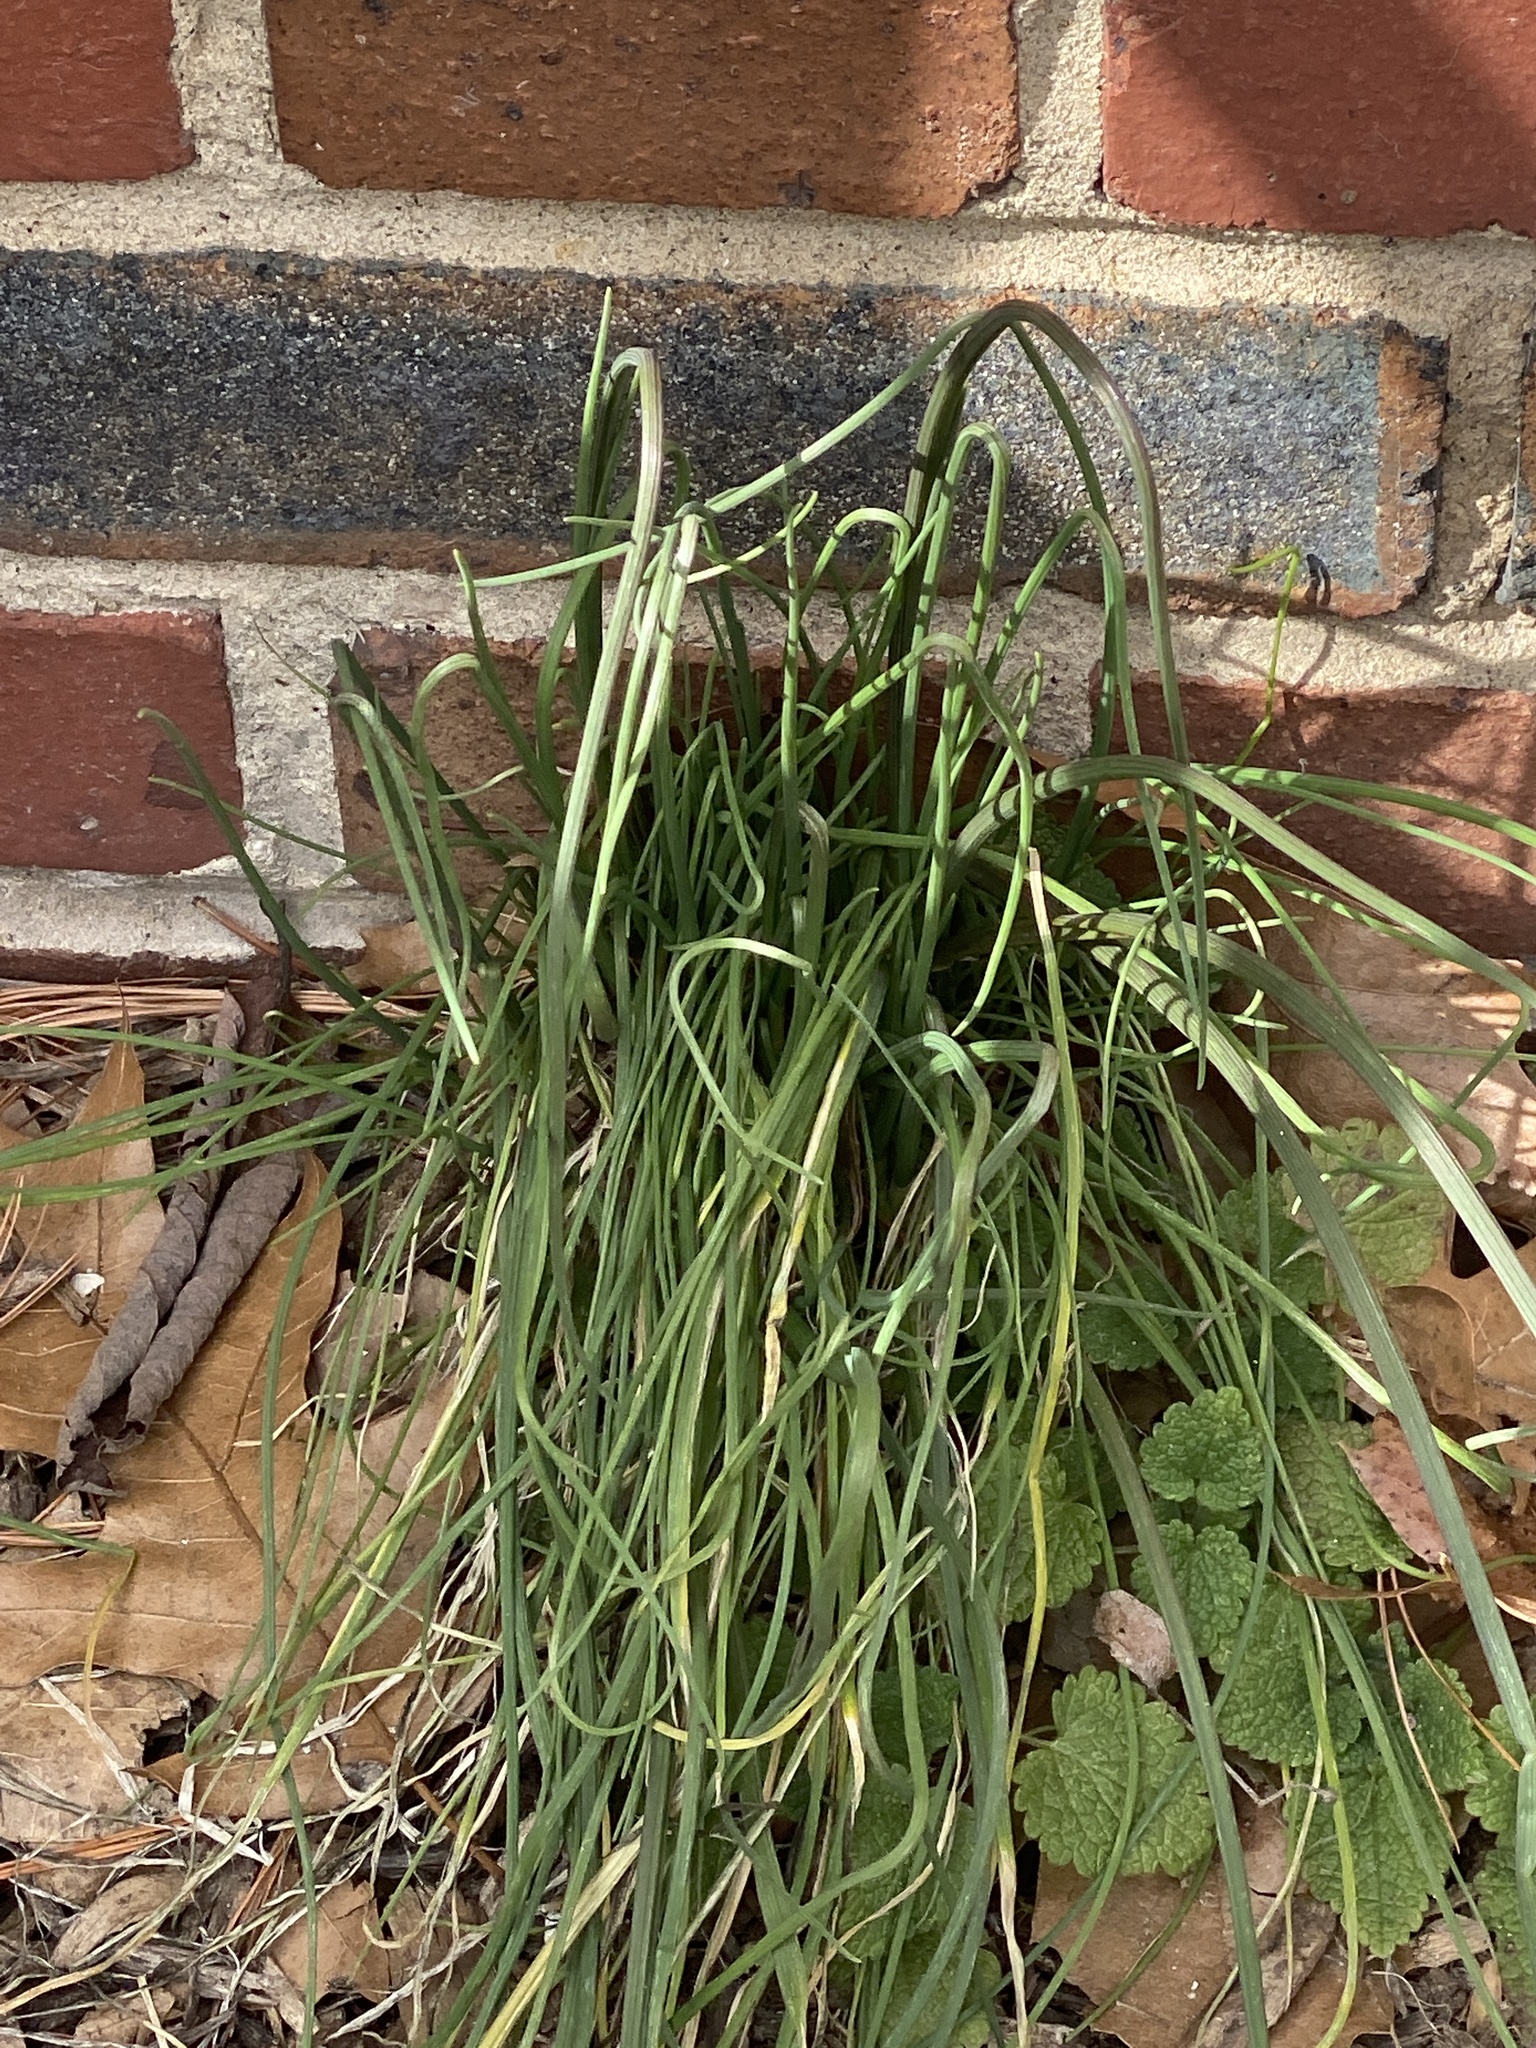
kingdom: Plantae
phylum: Tracheophyta
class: Liliopsida
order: Asparagales
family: Amaryllidaceae
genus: Allium
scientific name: Allium vineale
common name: Crow garlic
